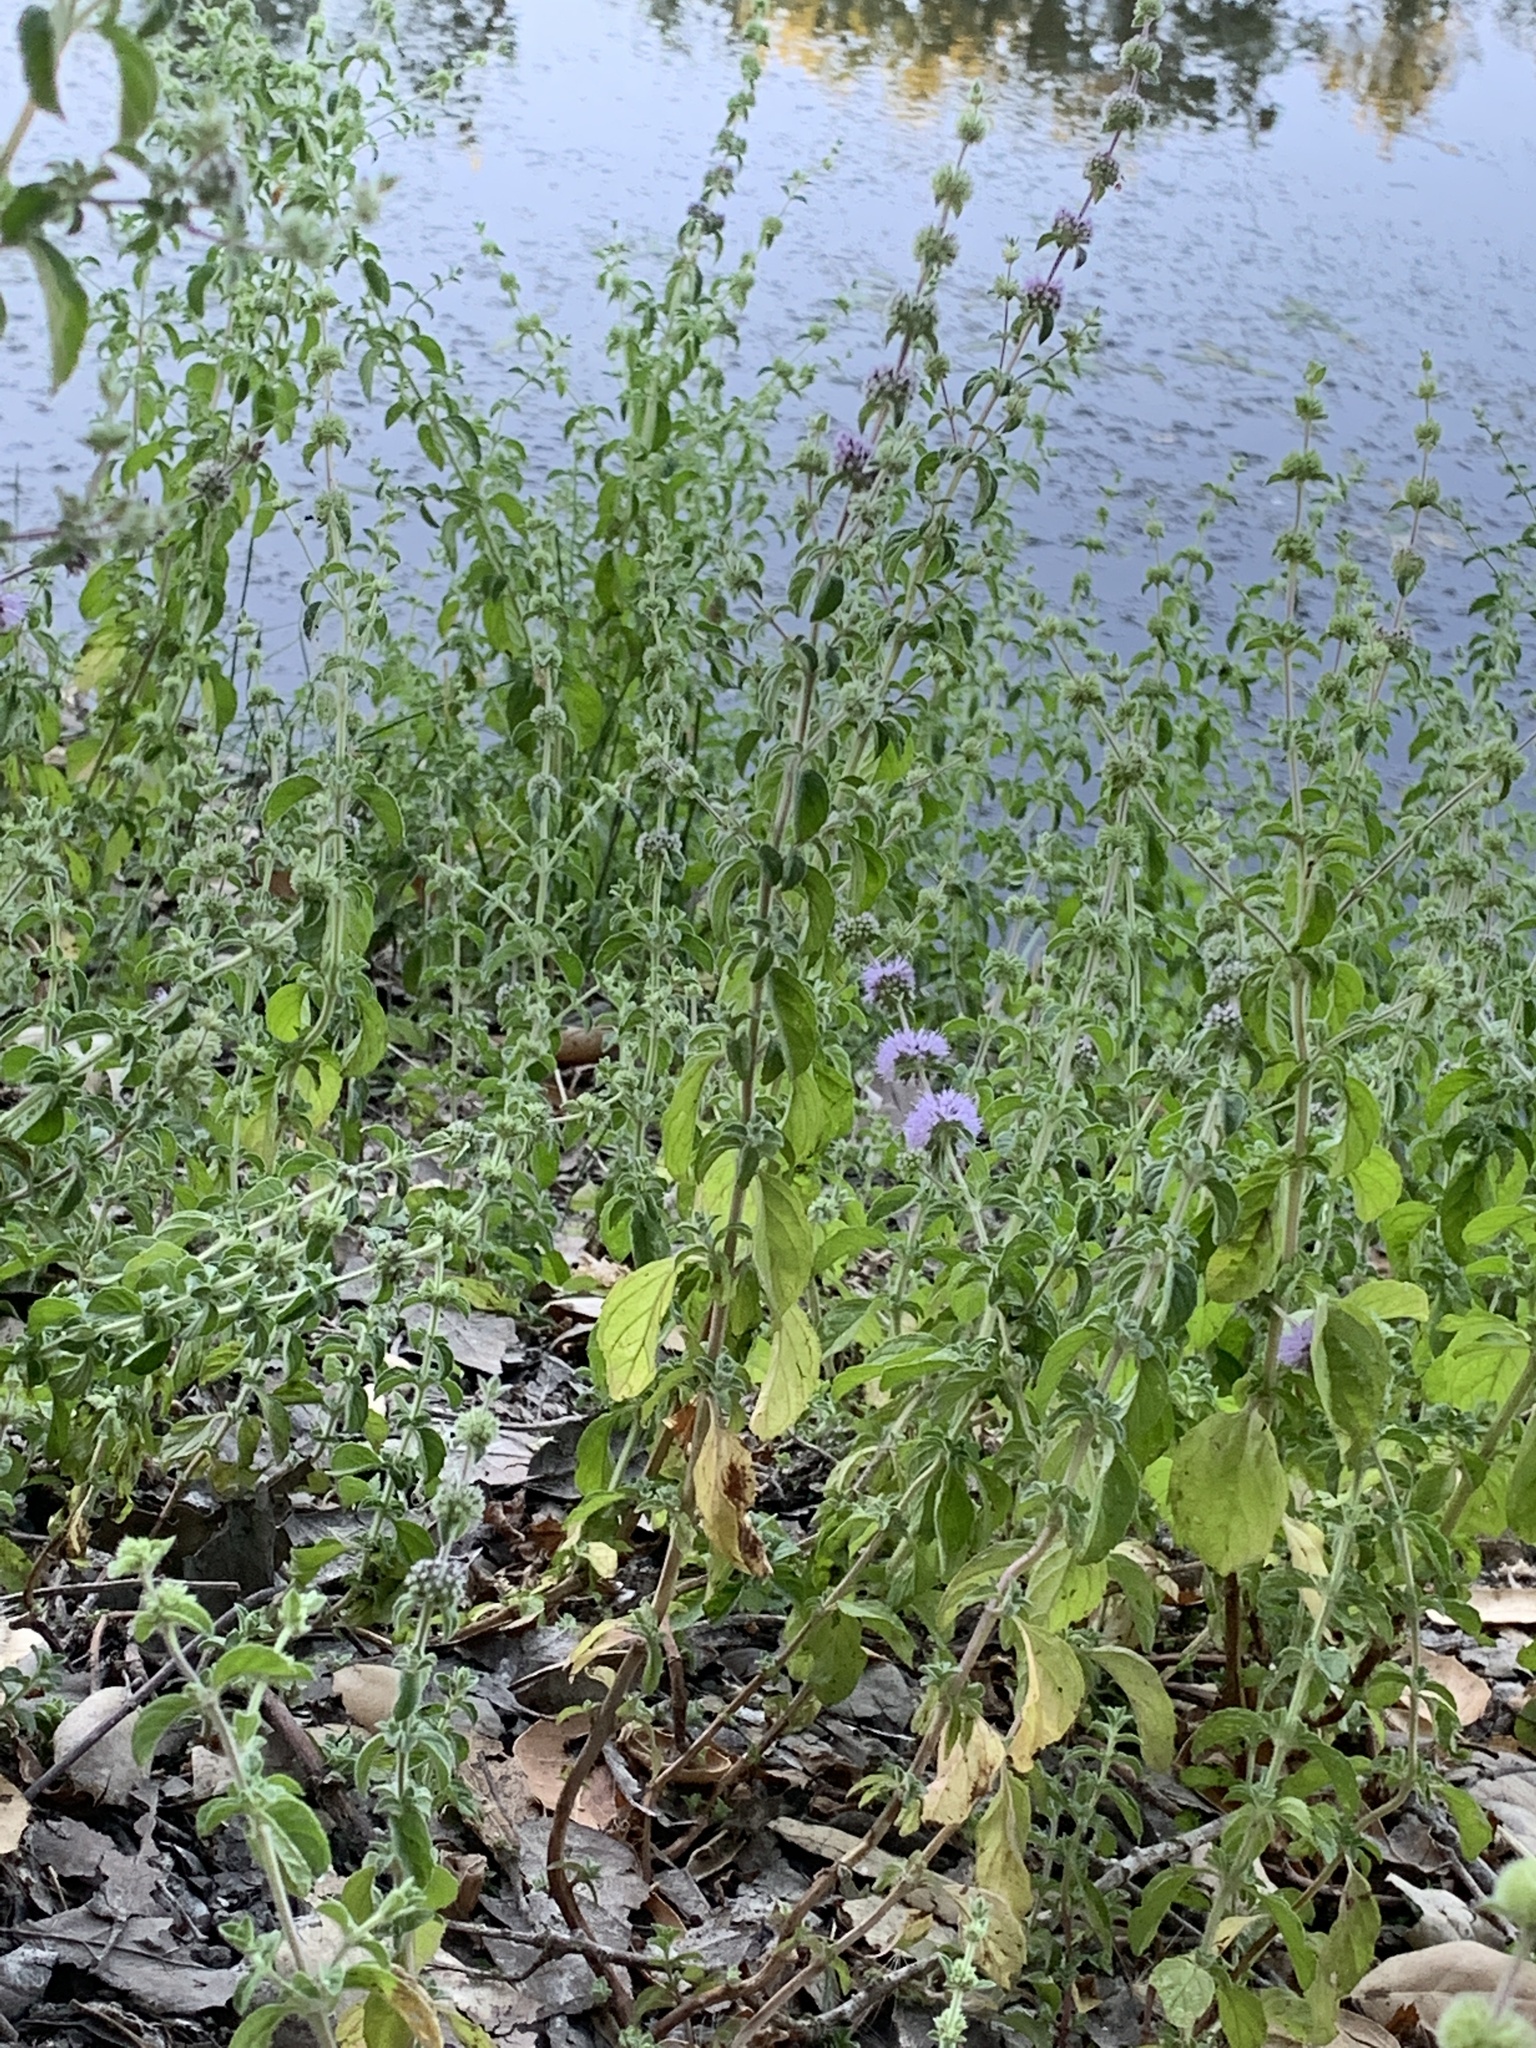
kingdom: Plantae
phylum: Tracheophyta
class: Magnoliopsida
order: Lamiales
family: Lamiaceae
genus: Mentha
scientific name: Mentha pulegium
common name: Pennyroyal
